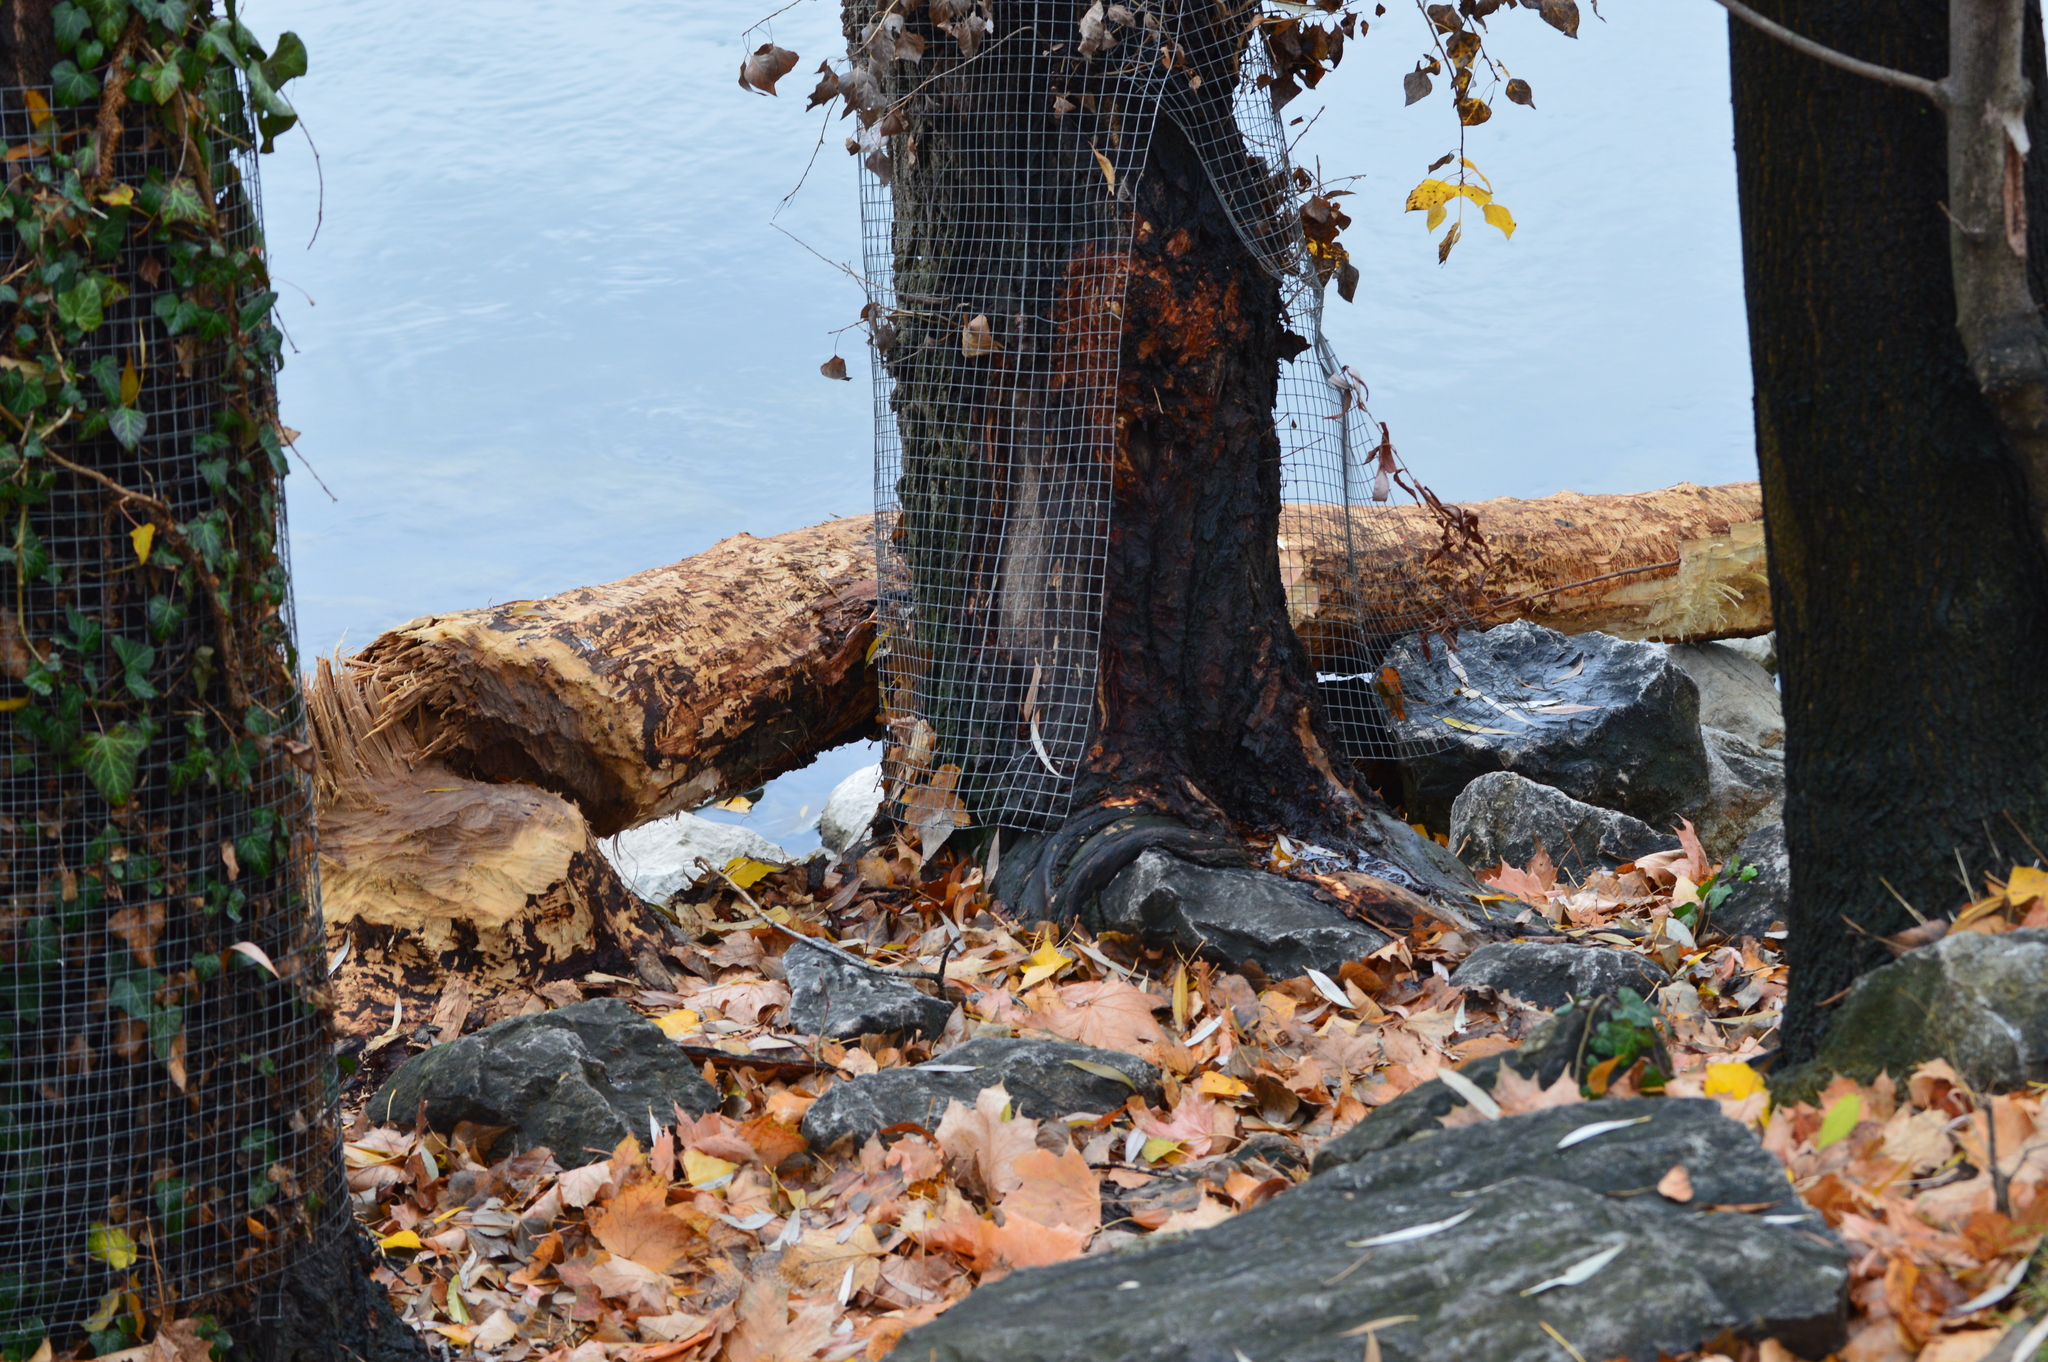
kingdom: Animalia
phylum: Chordata
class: Mammalia
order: Rodentia
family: Castoridae
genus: Castor
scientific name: Castor fiber
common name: Eurasian beaver
